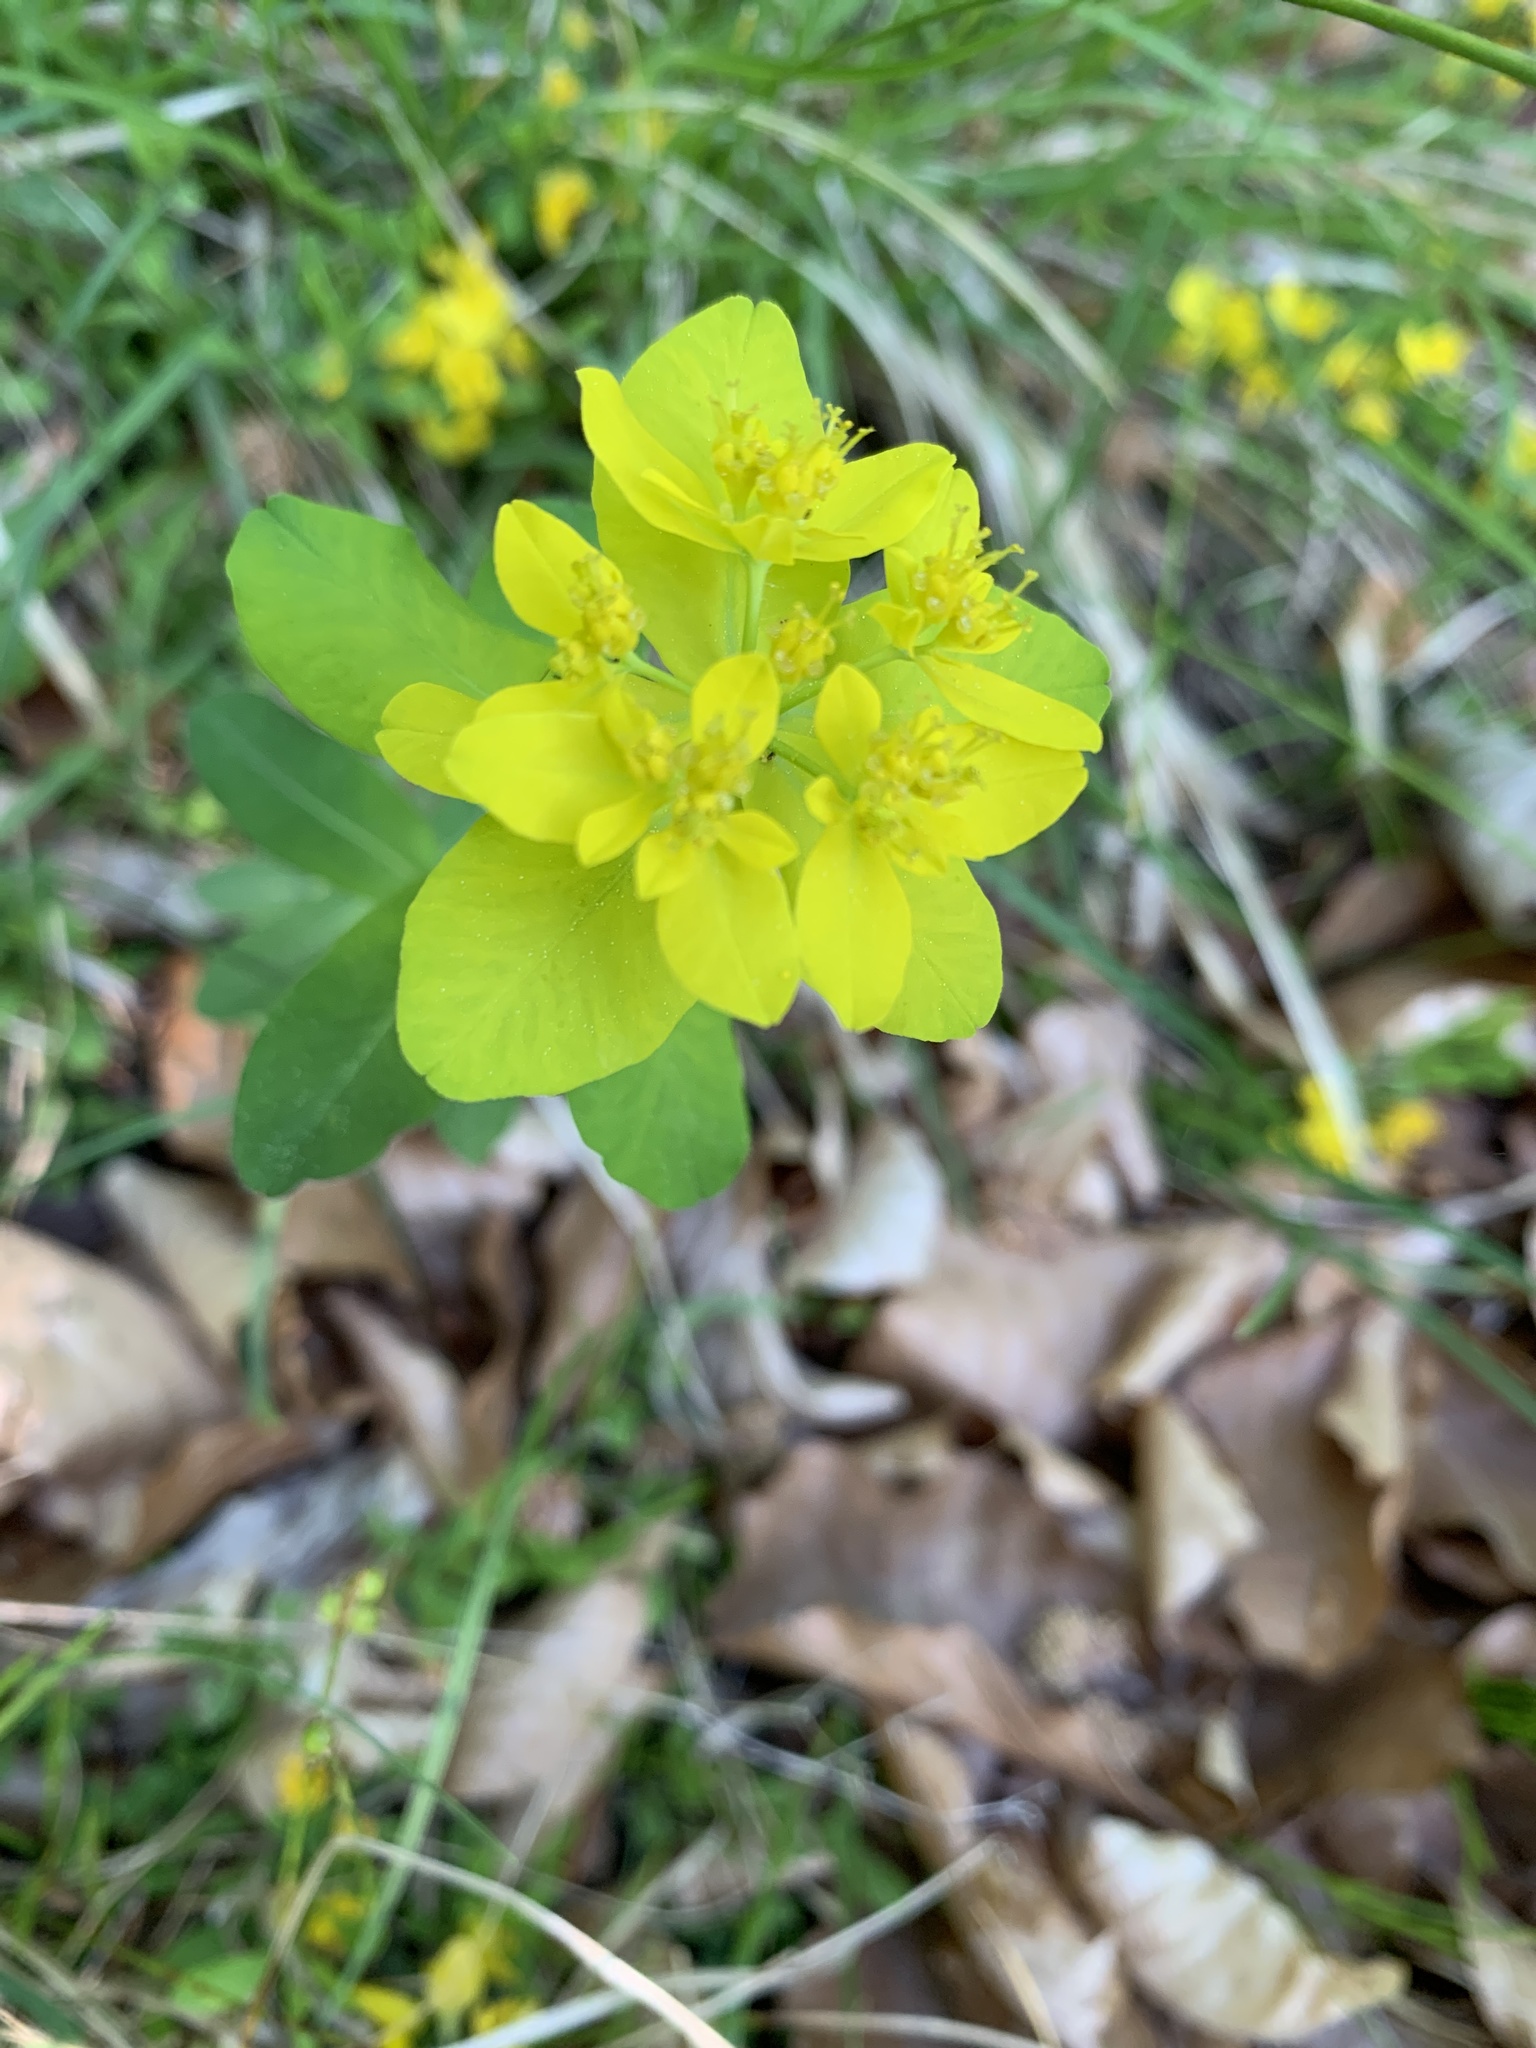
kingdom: Plantae
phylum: Tracheophyta
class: Magnoliopsida
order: Malpighiales
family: Euphorbiaceae
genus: Euphorbia
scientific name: Euphorbia epithymoides
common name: Cushion spurge
